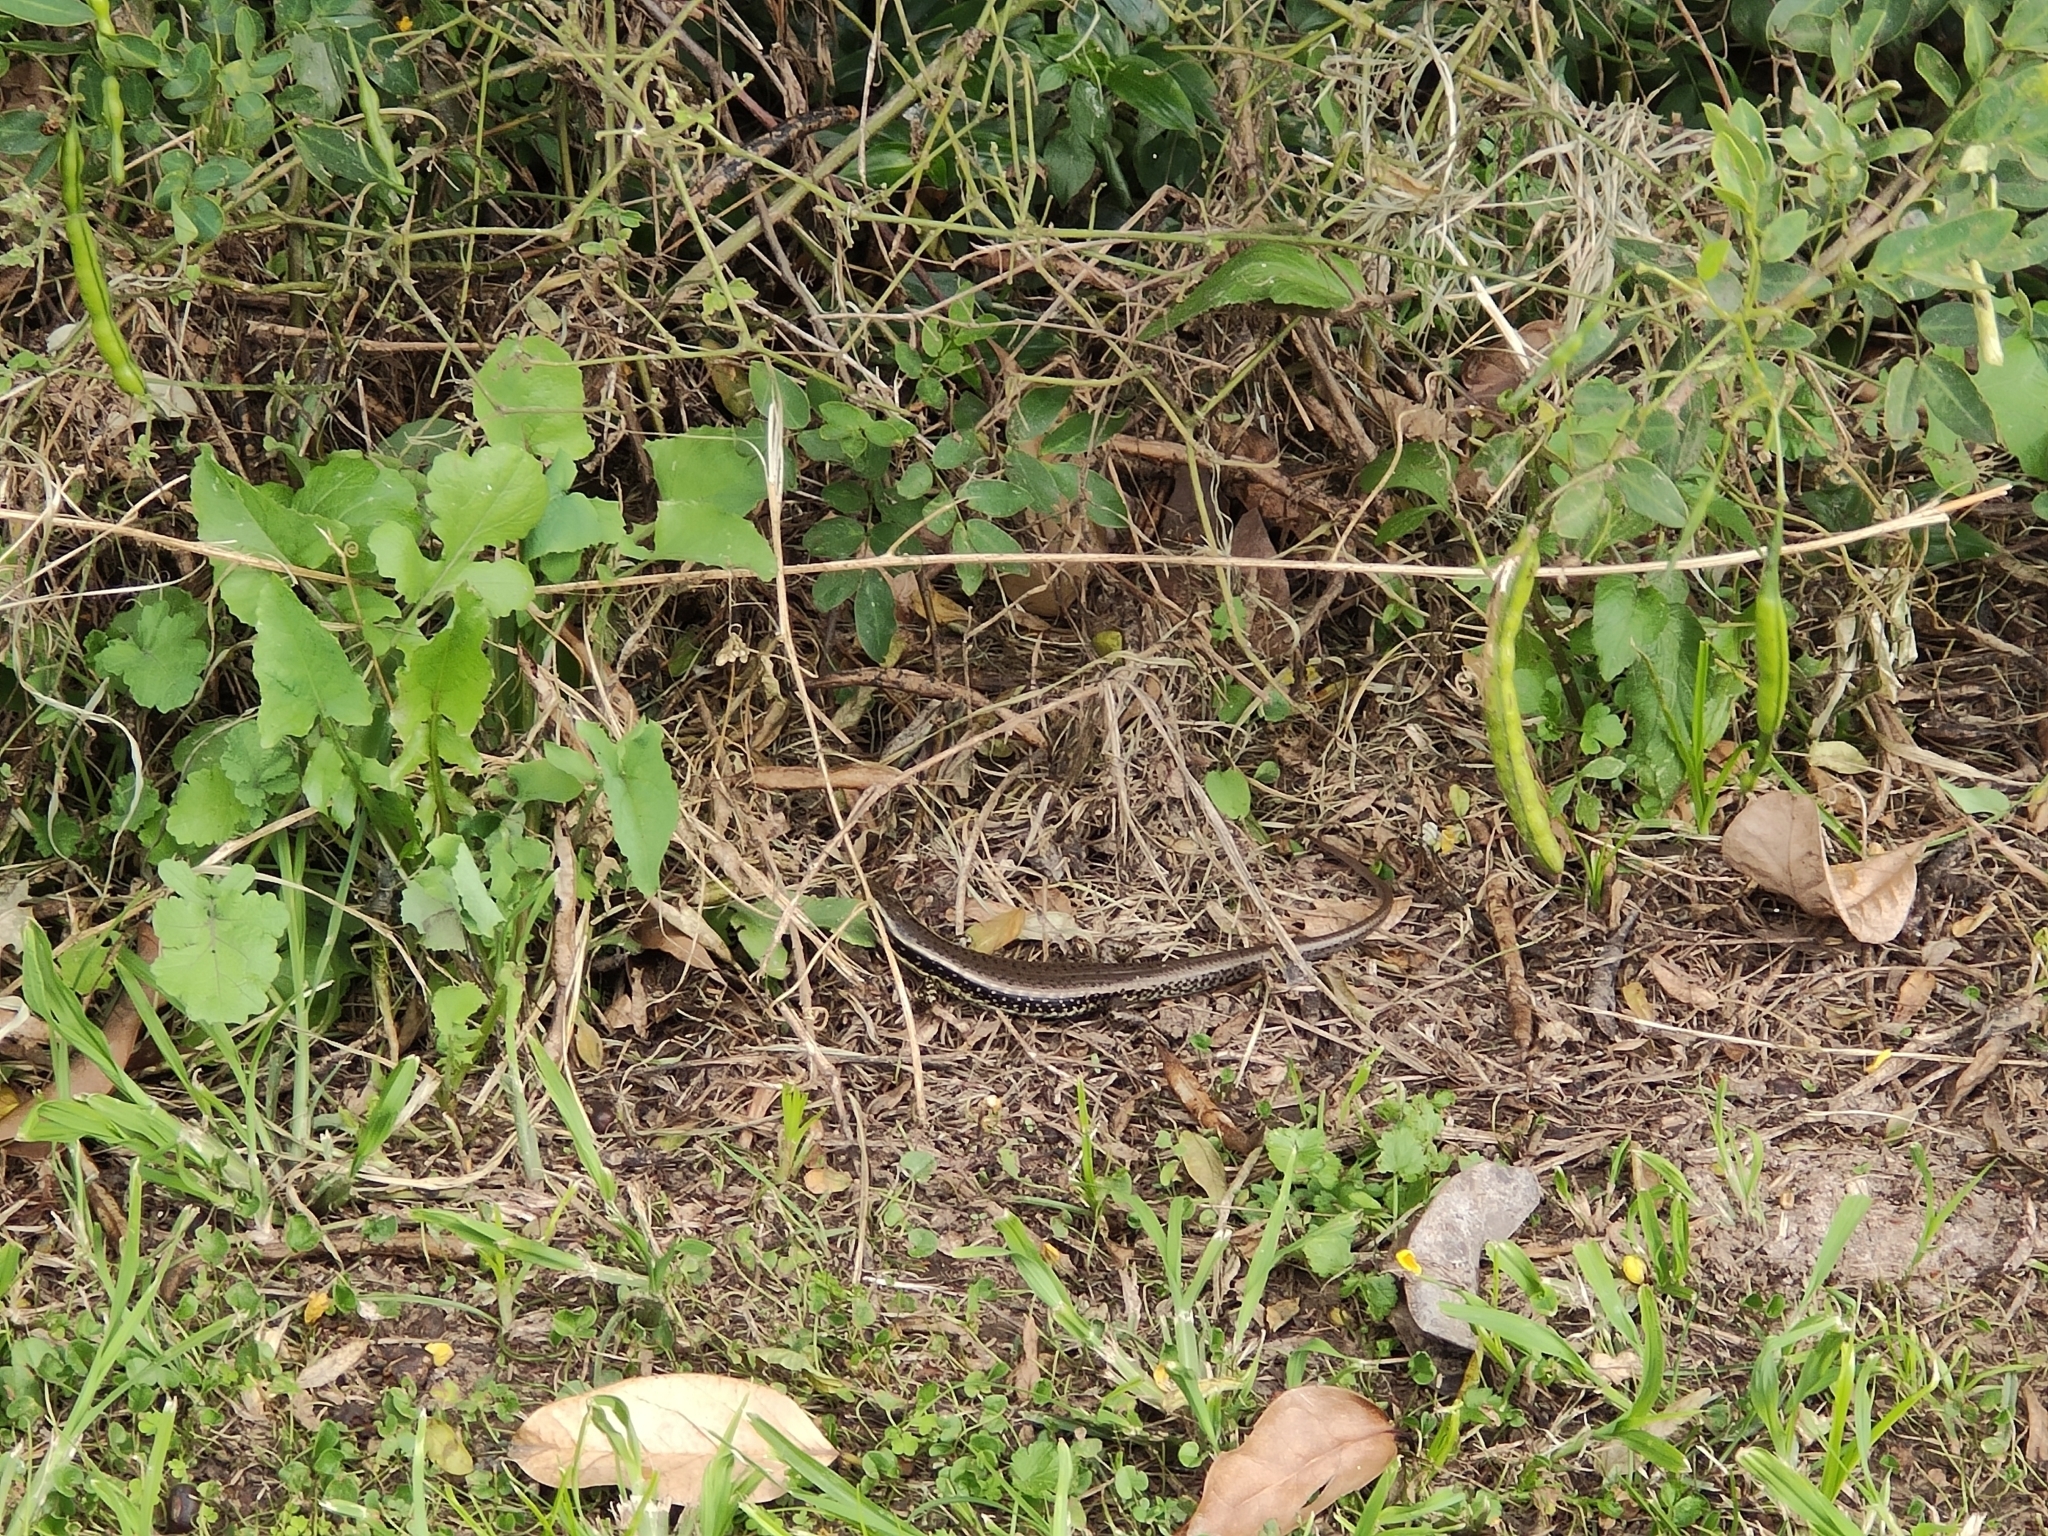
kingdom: Animalia
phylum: Chordata
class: Squamata
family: Scincidae
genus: Eulamprus
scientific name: Eulamprus quoyii
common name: Eastern water skink
